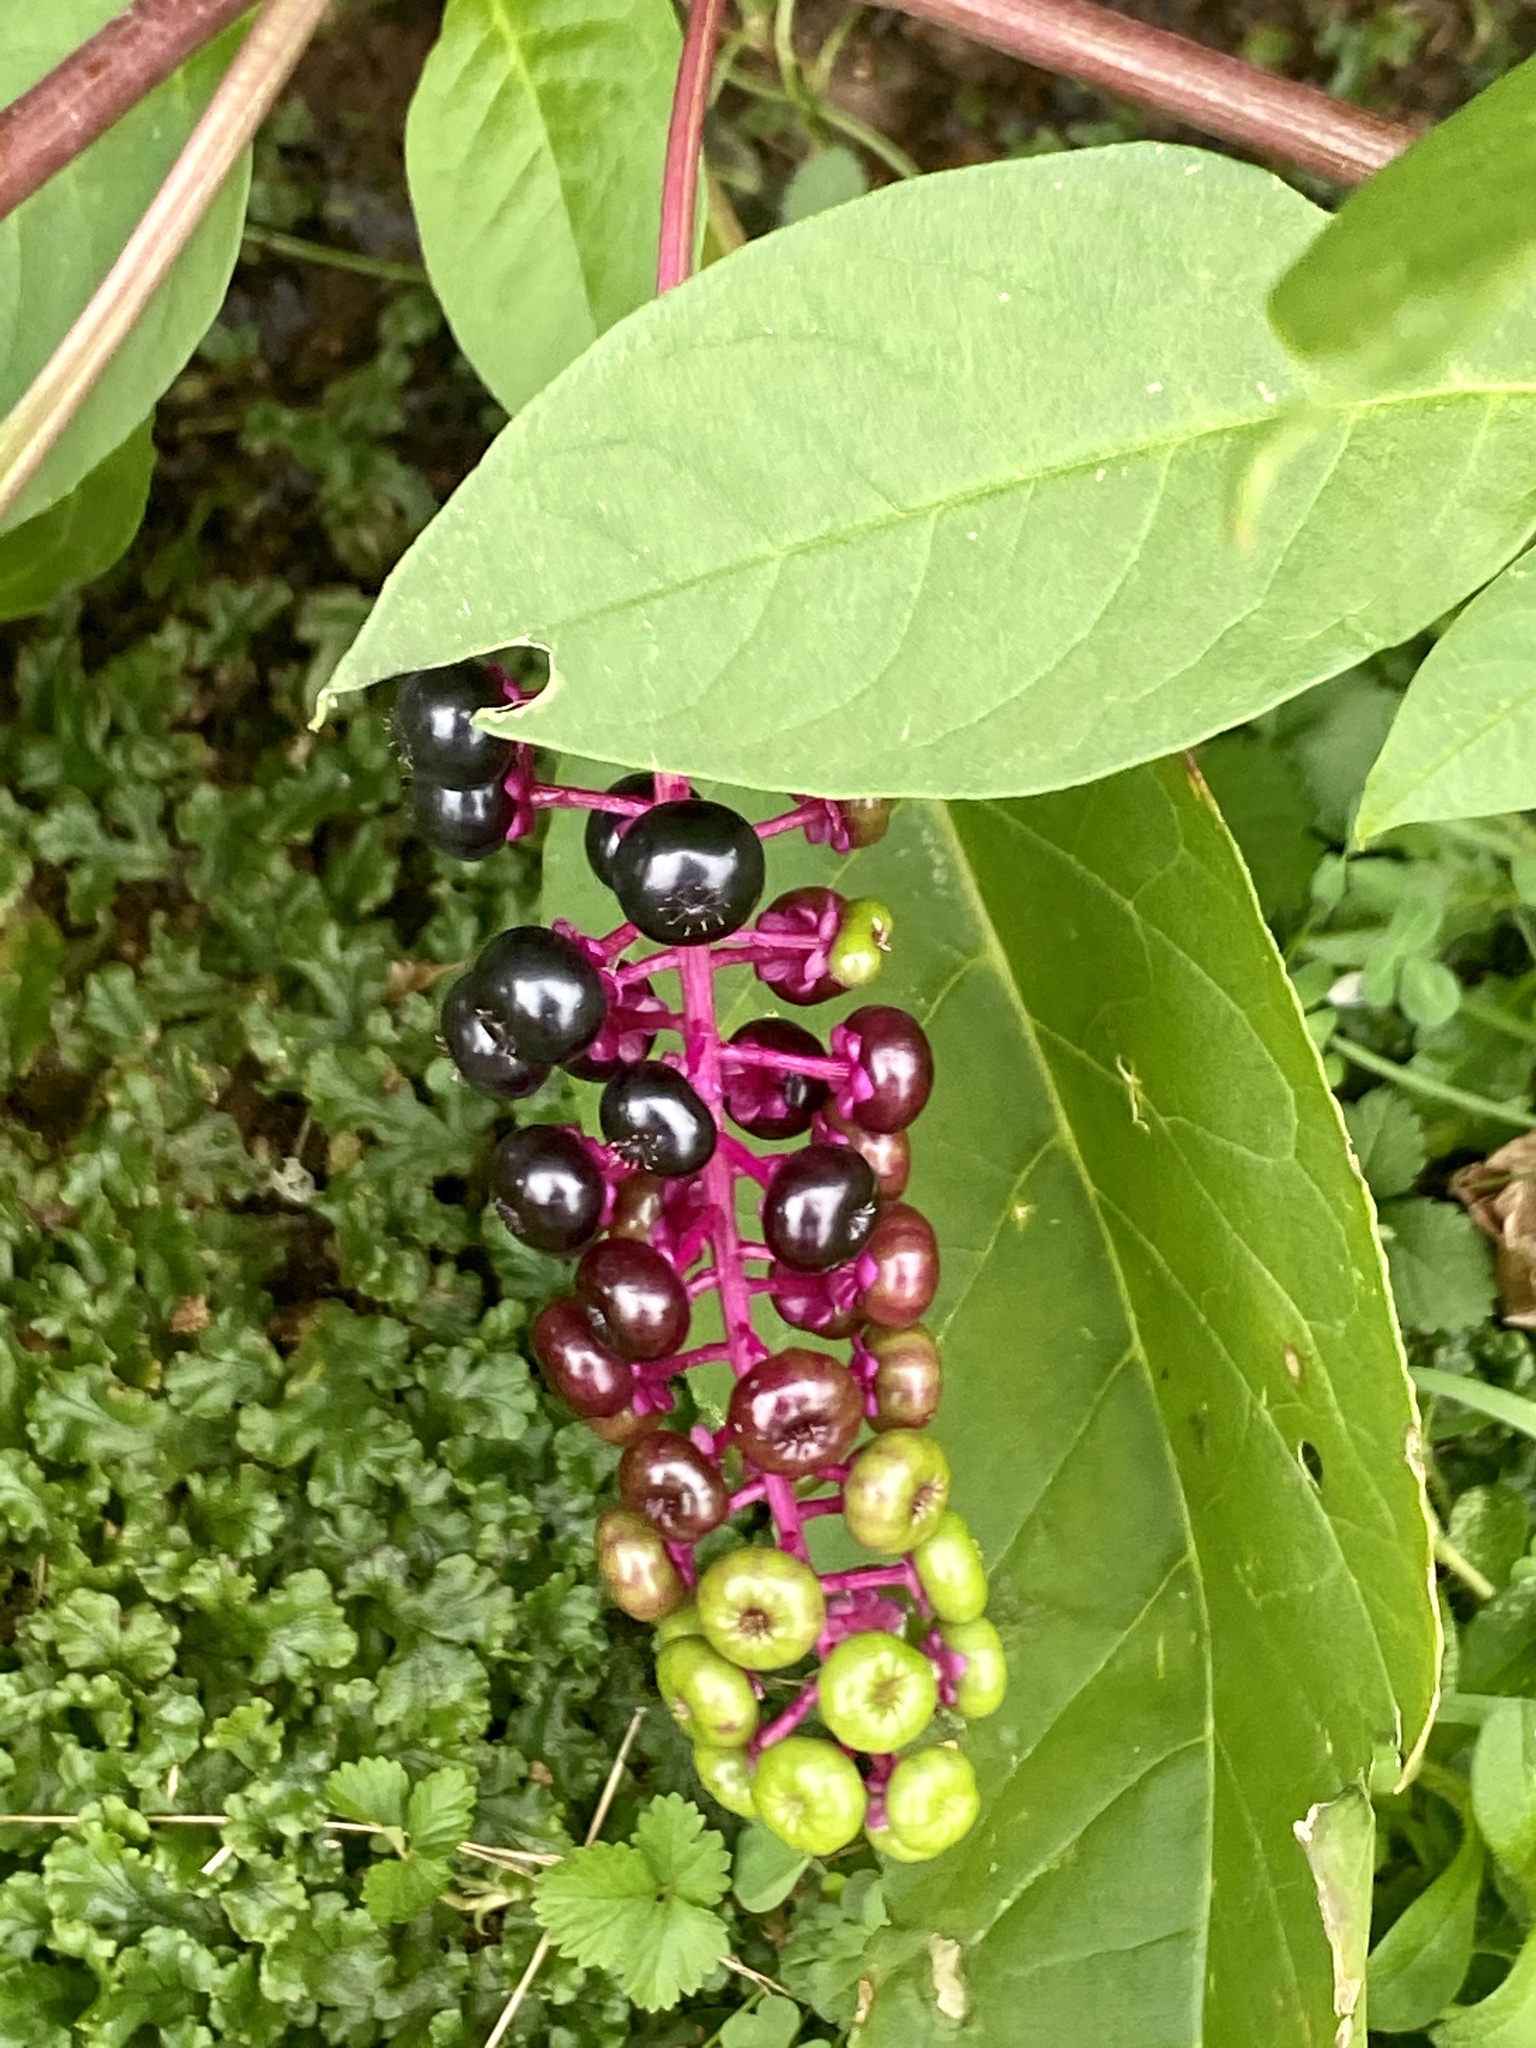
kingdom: Plantae
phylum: Tracheophyta
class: Magnoliopsida
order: Caryophyllales
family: Phytolaccaceae
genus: Phytolacca
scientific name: Phytolacca americana
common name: American pokeweed
